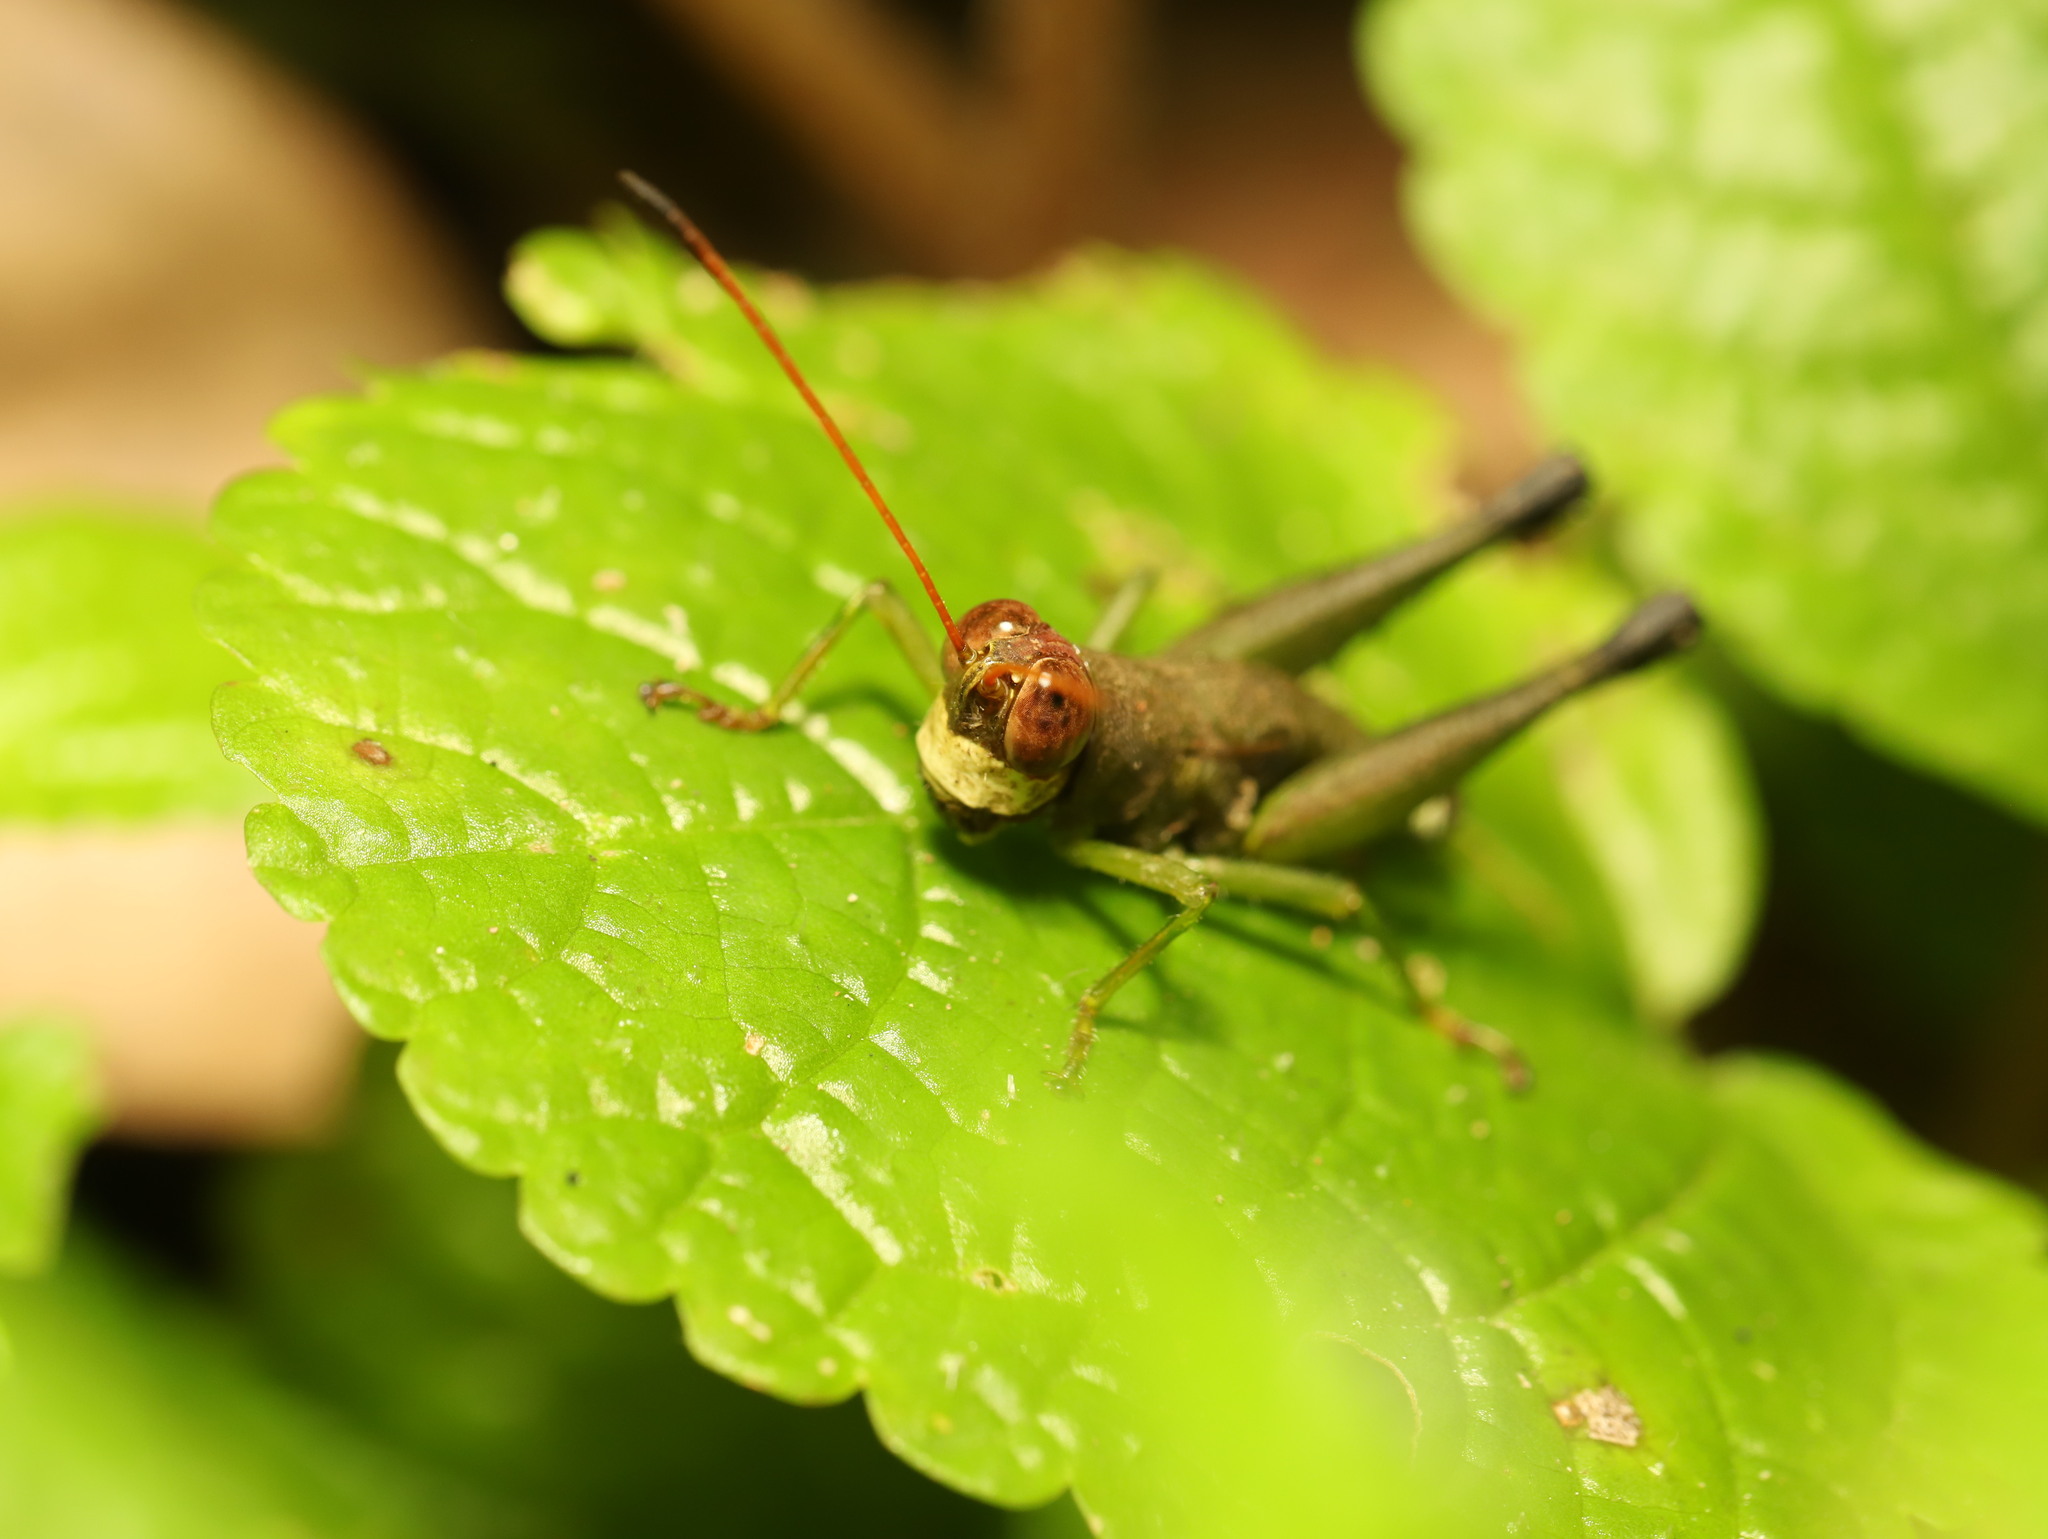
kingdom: Animalia
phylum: Arthropoda
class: Insecta
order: Orthoptera
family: Acrididae
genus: Cingalia
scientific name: Cingalia dubia
